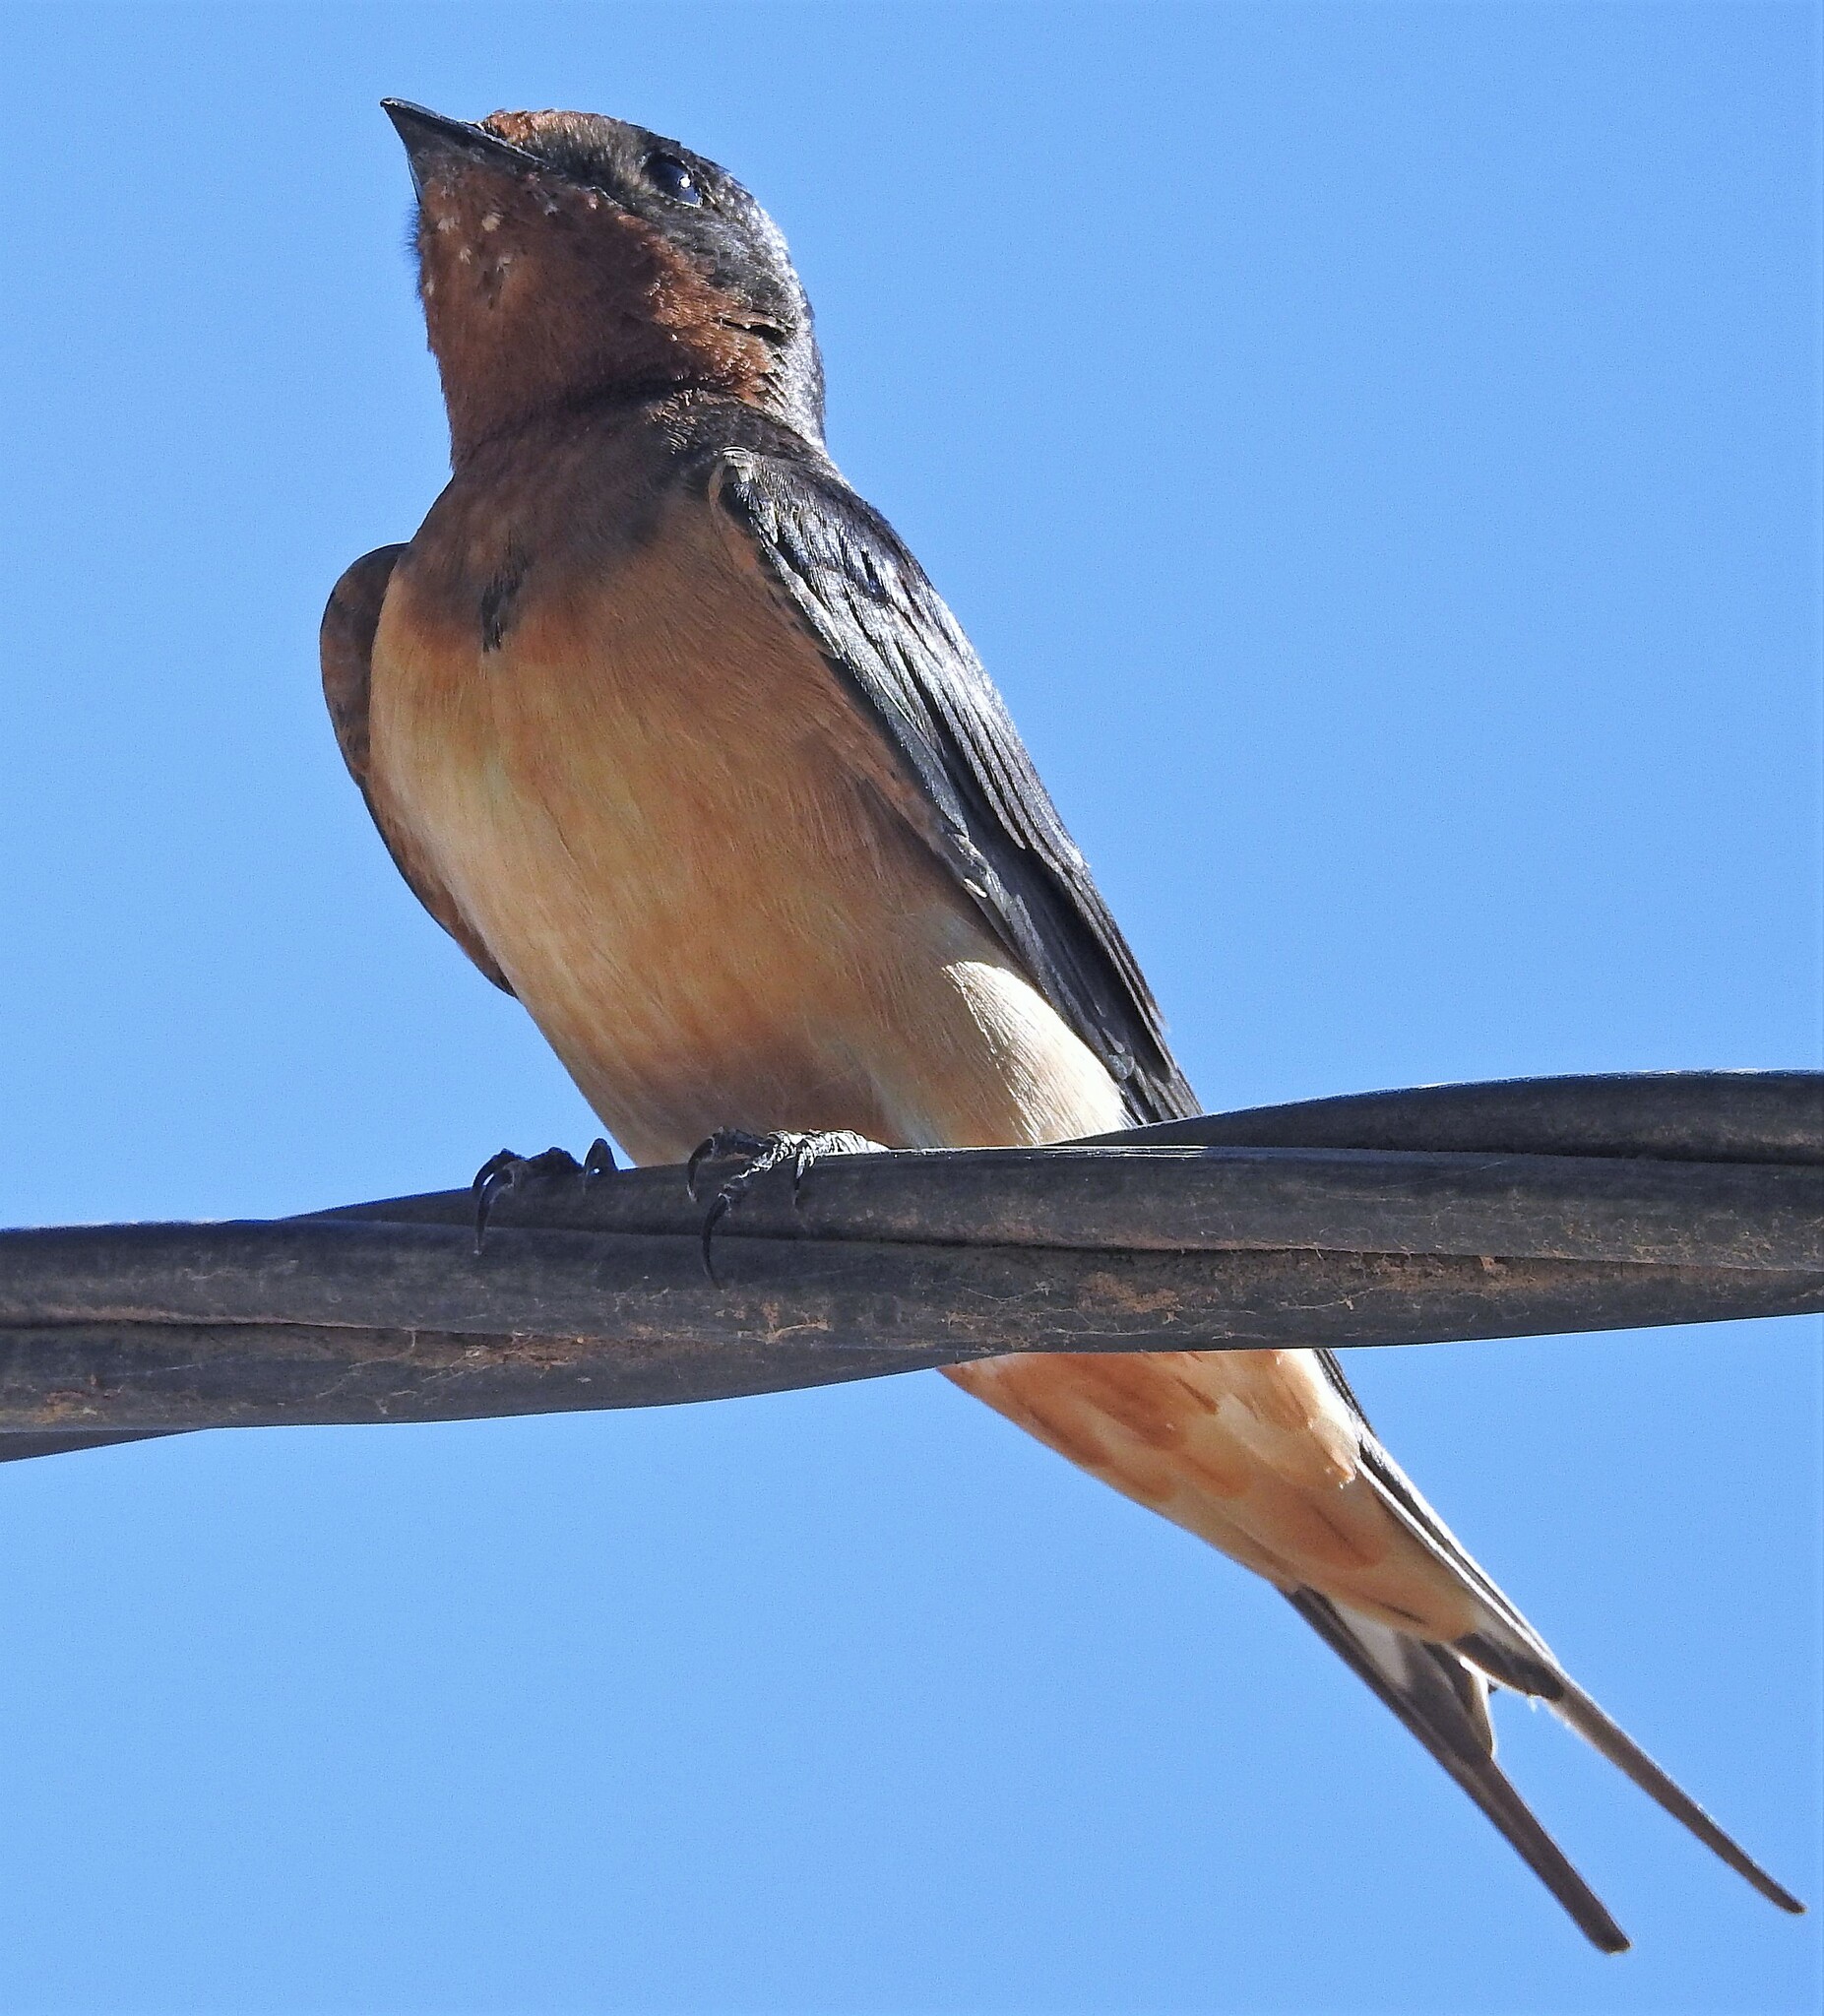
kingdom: Animalia
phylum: Chordata
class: Aves
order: Passeriformes
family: Hirundinidae
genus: Hirundo
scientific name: Hirundo rustica
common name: Barn swallow
